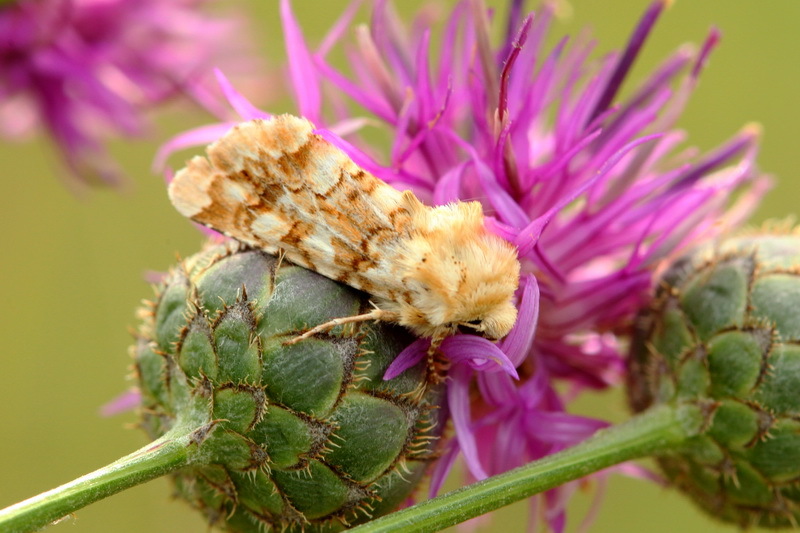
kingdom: Animalia
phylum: Arthropoda
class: Insecta
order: Lepidoptera
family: Noctuidae
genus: Hadena
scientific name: Hadena irregularis
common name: Vipers bugloss
